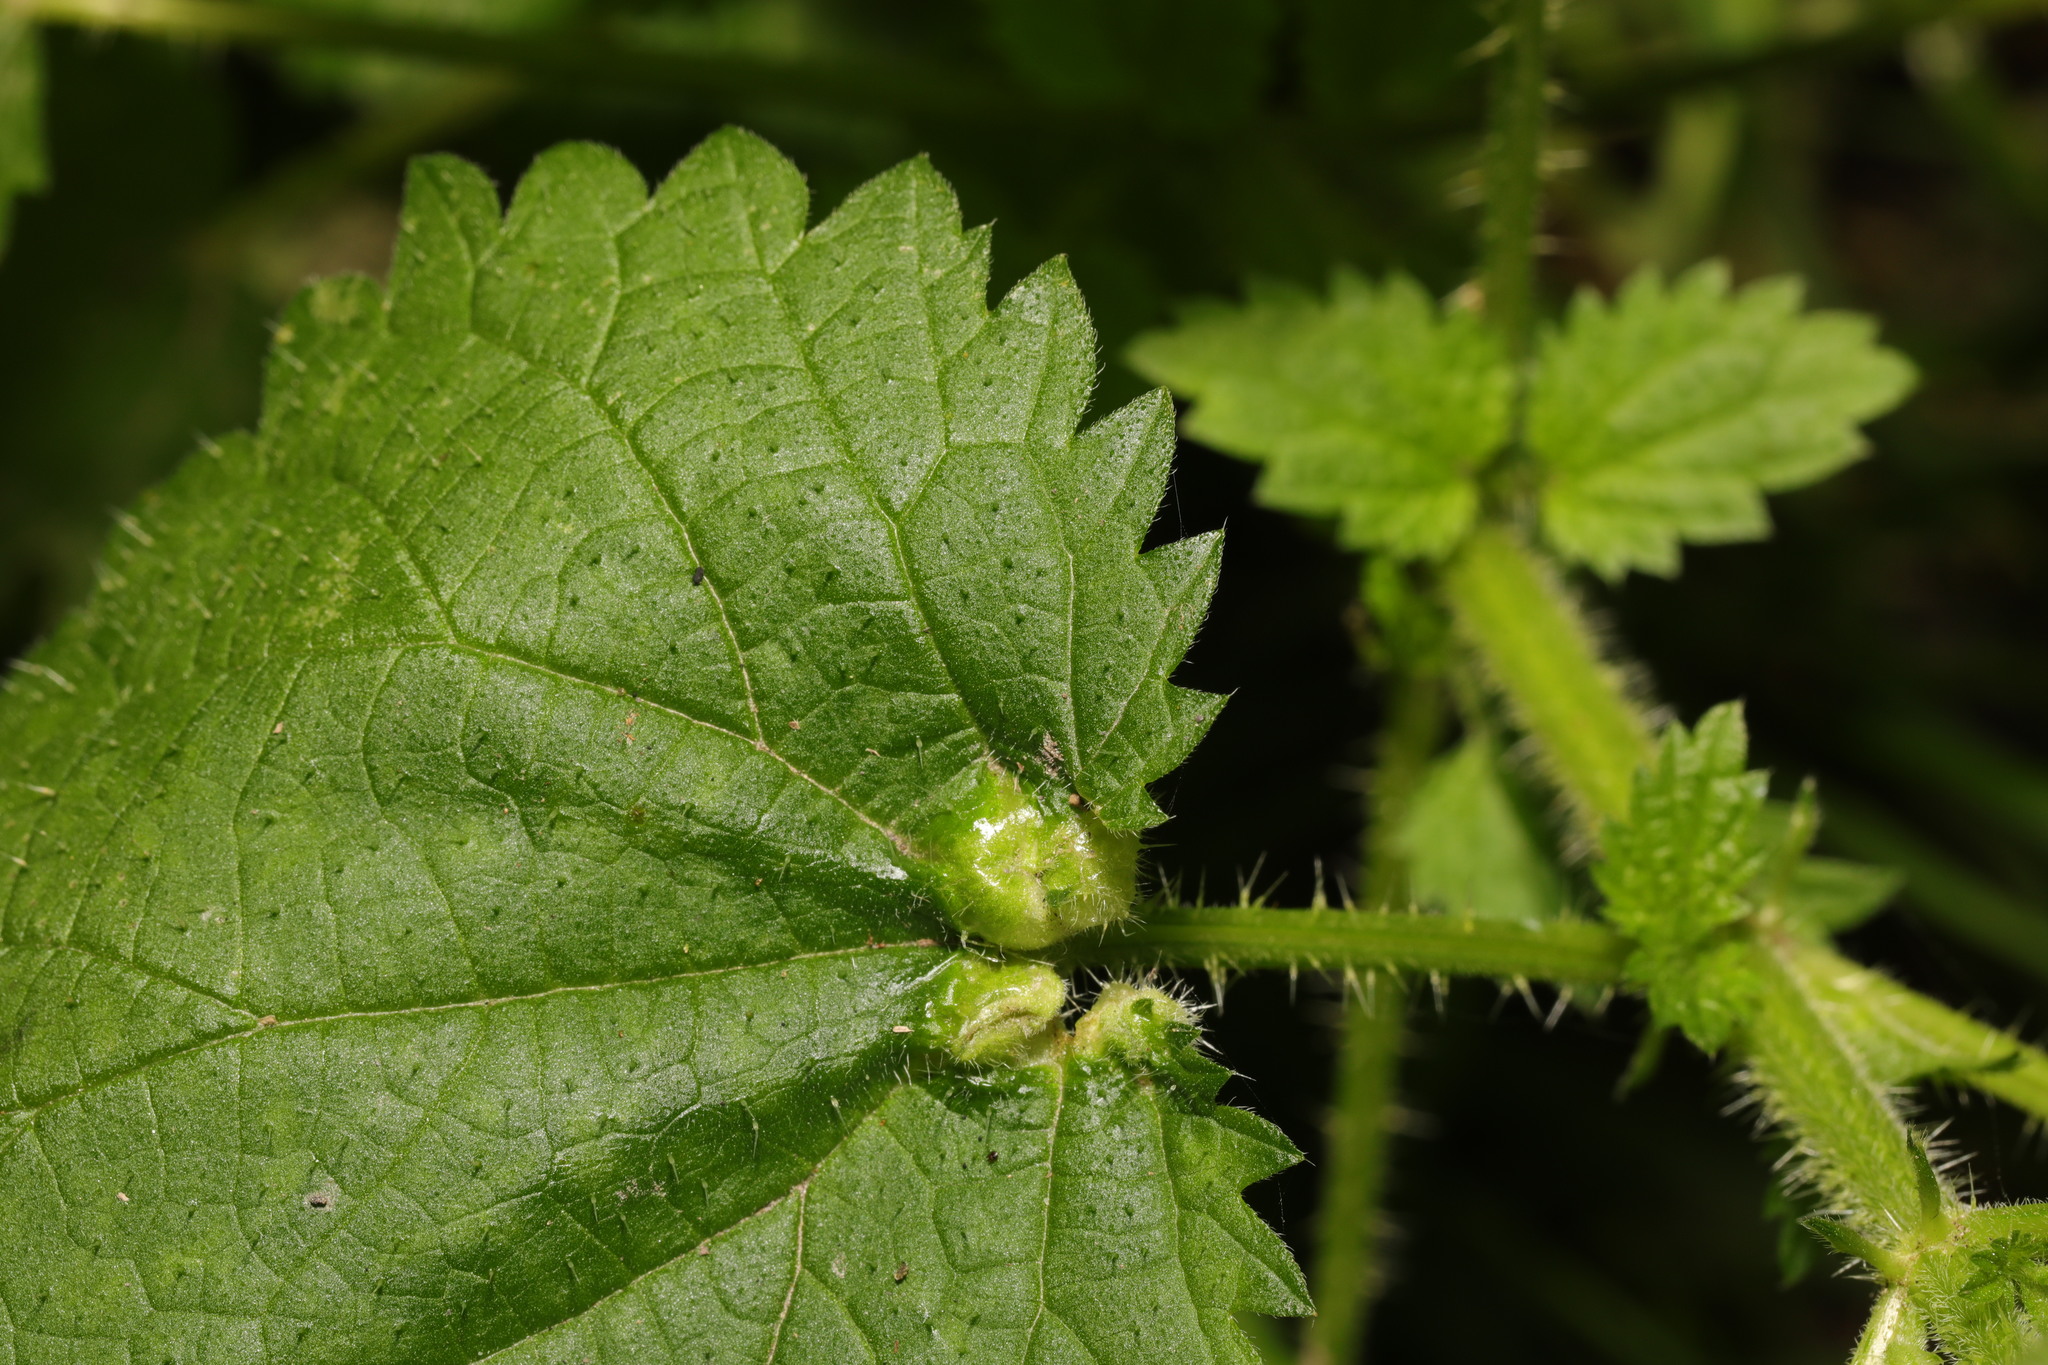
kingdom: Animalia
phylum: Arthropoda
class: Insecta
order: Diptera
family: Cecidomyiidae
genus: Dasineura
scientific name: Dasineura urticae
